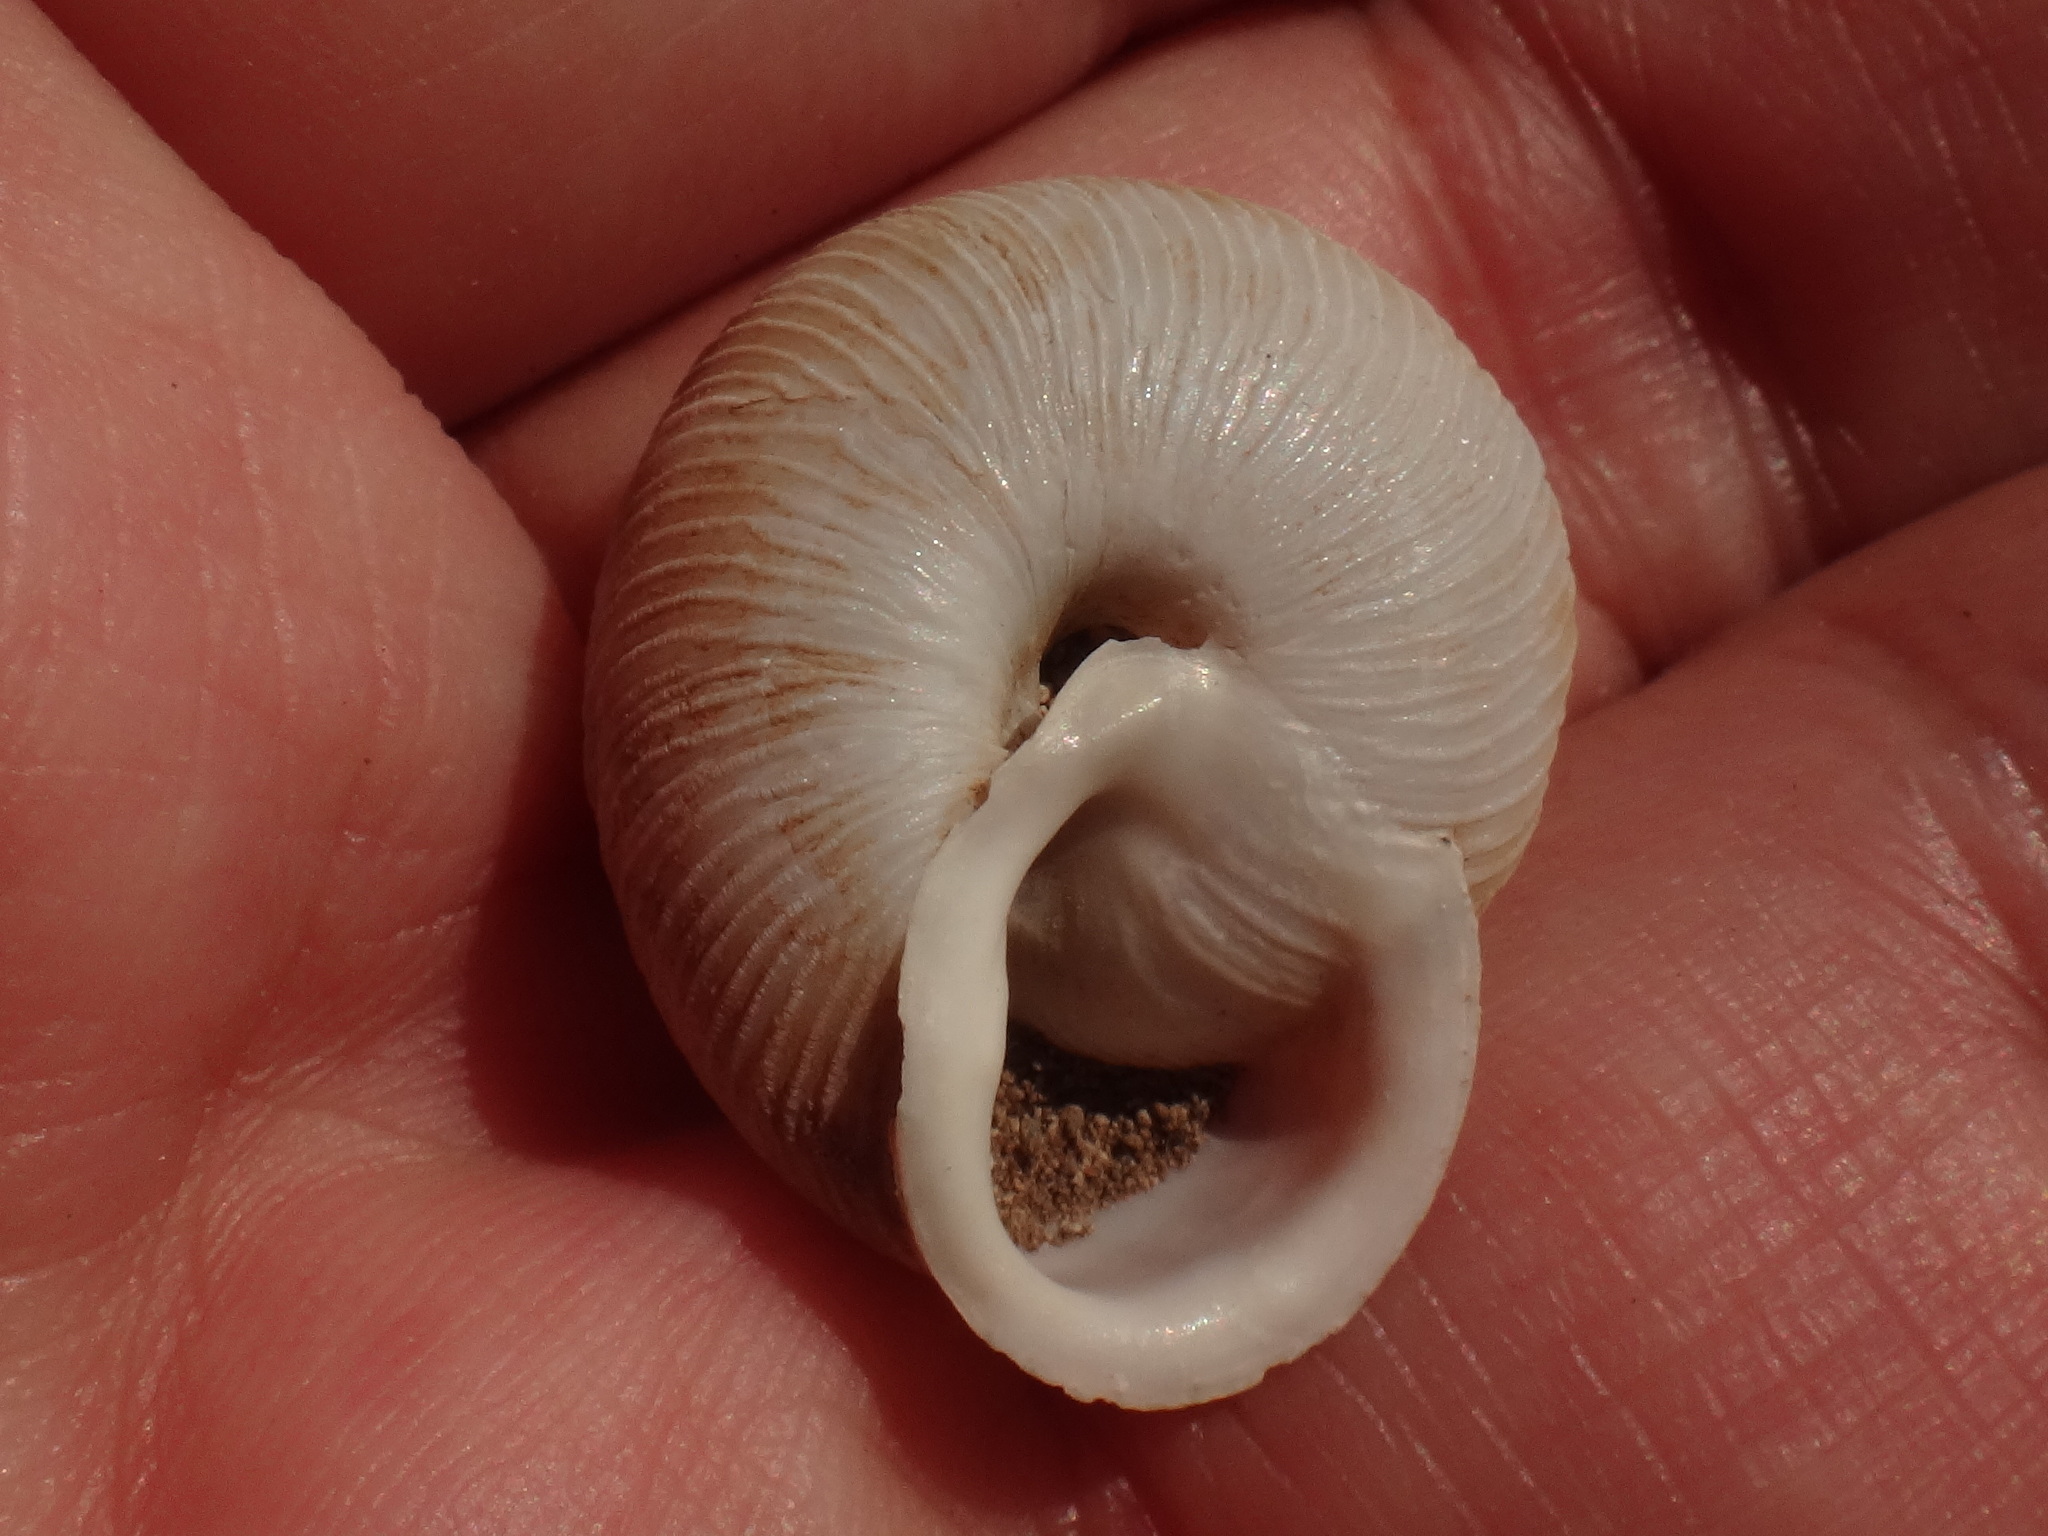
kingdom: Animalia
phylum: Mollusca
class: Gastropoda
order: Stylommatophora
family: Helicidae
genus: Hemicycla
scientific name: Hemicycla incisogranulata
